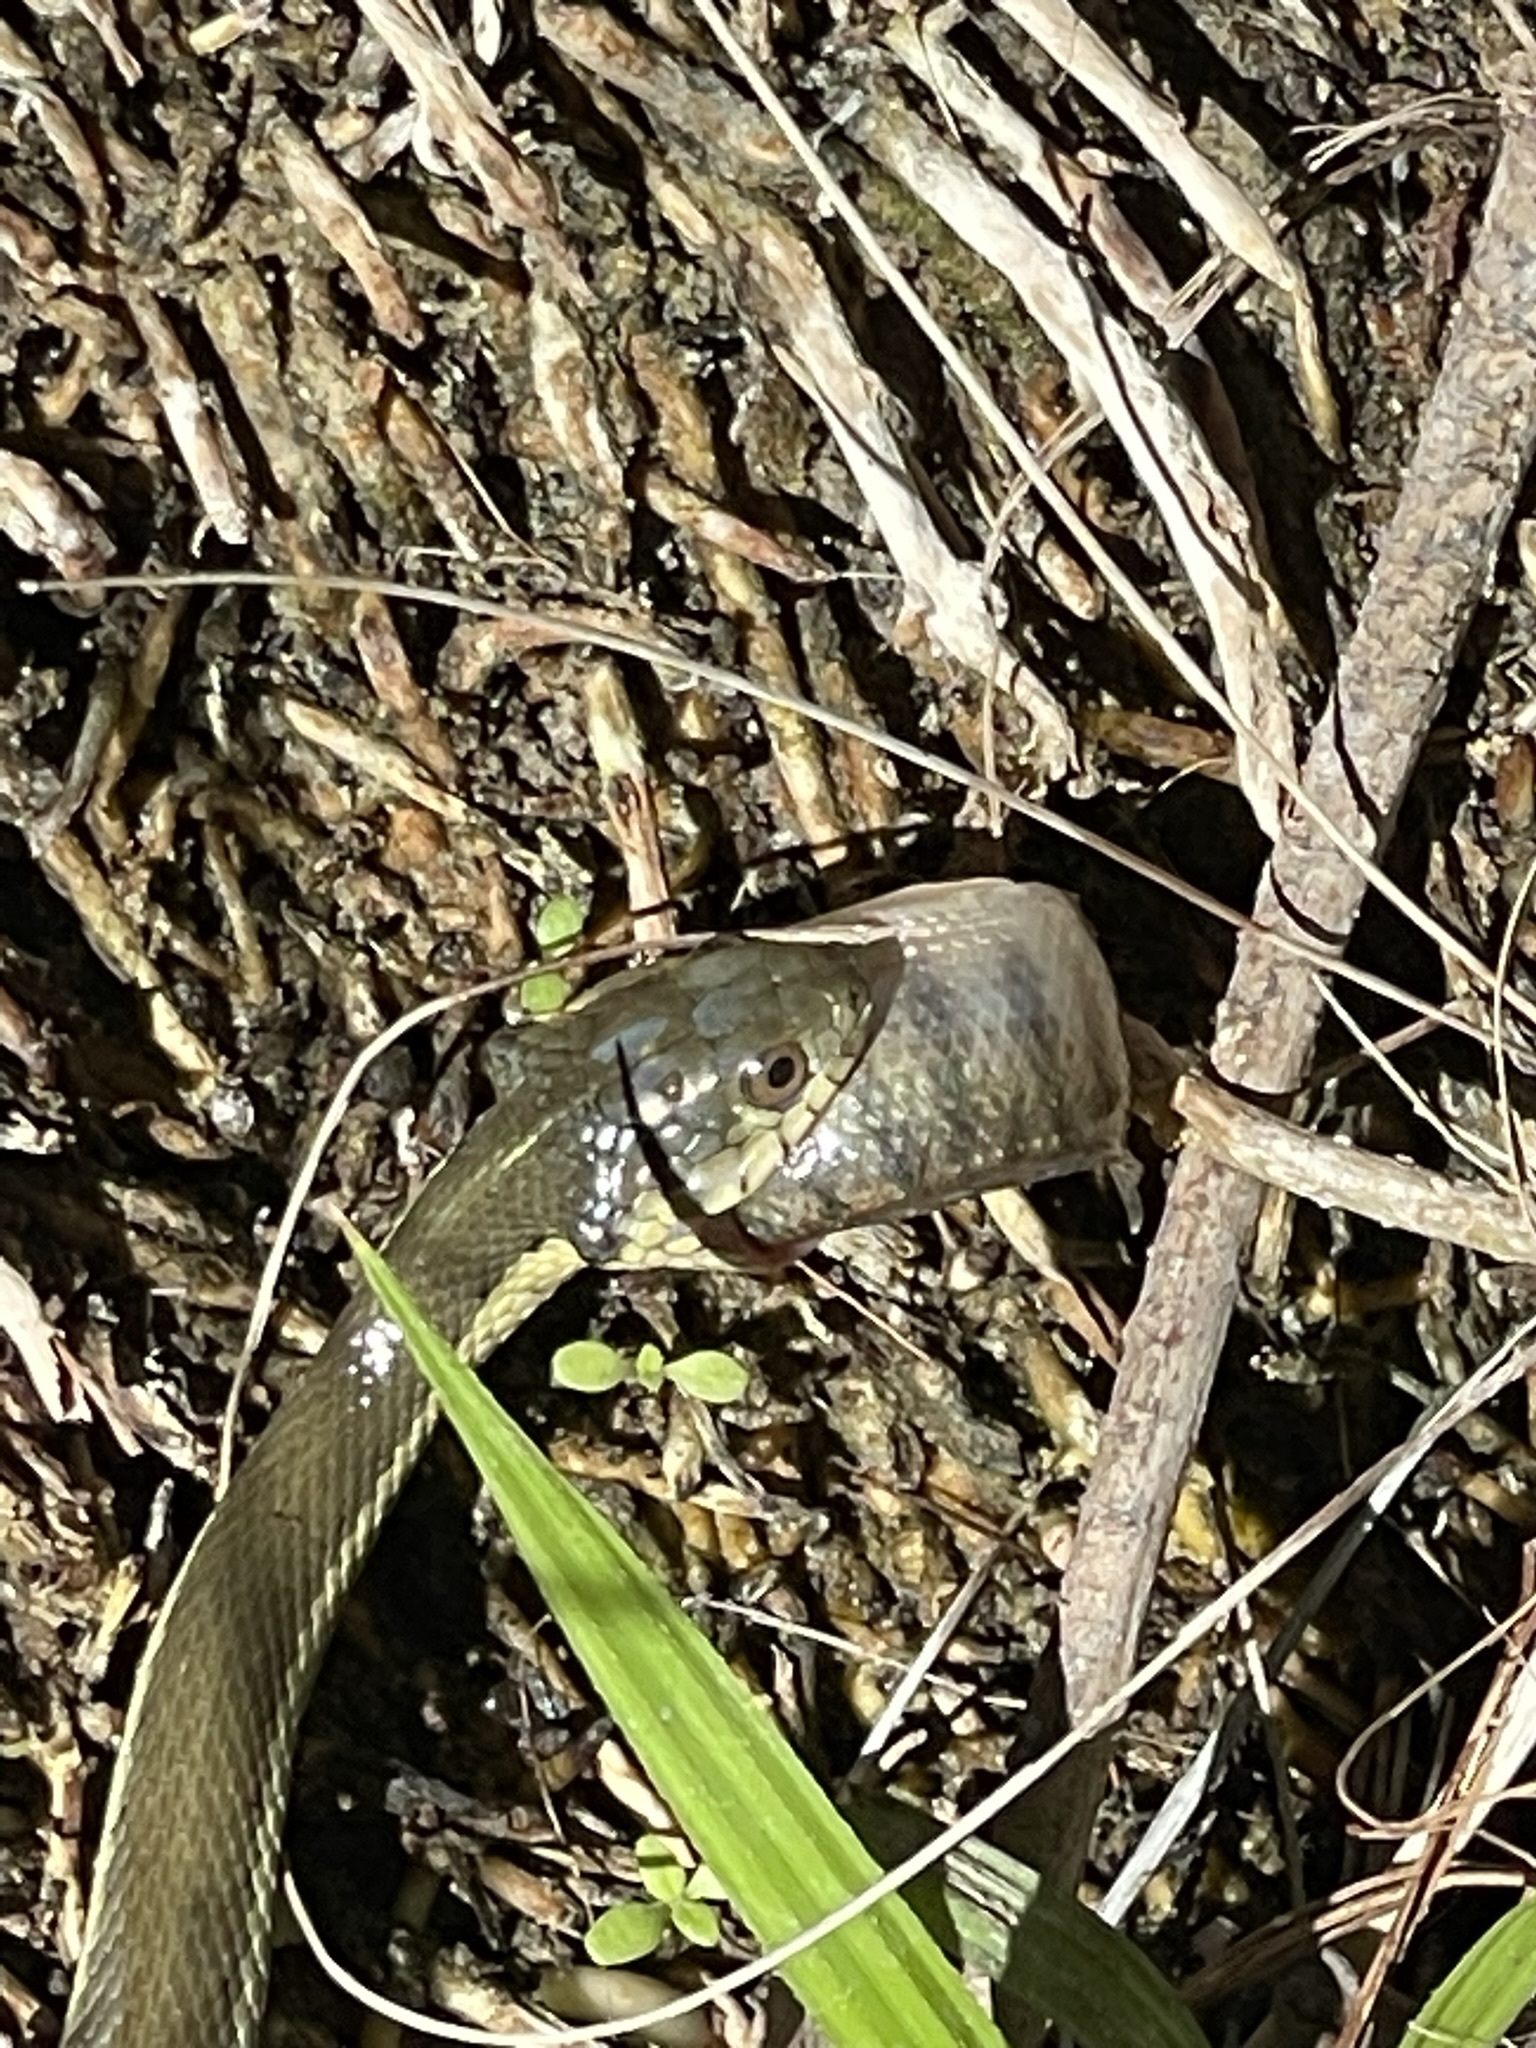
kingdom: Animalia
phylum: Chordata
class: Squamata
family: Colubridae
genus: Thamnophis
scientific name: Thamnophis hammondii
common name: Two-striped garter snake
